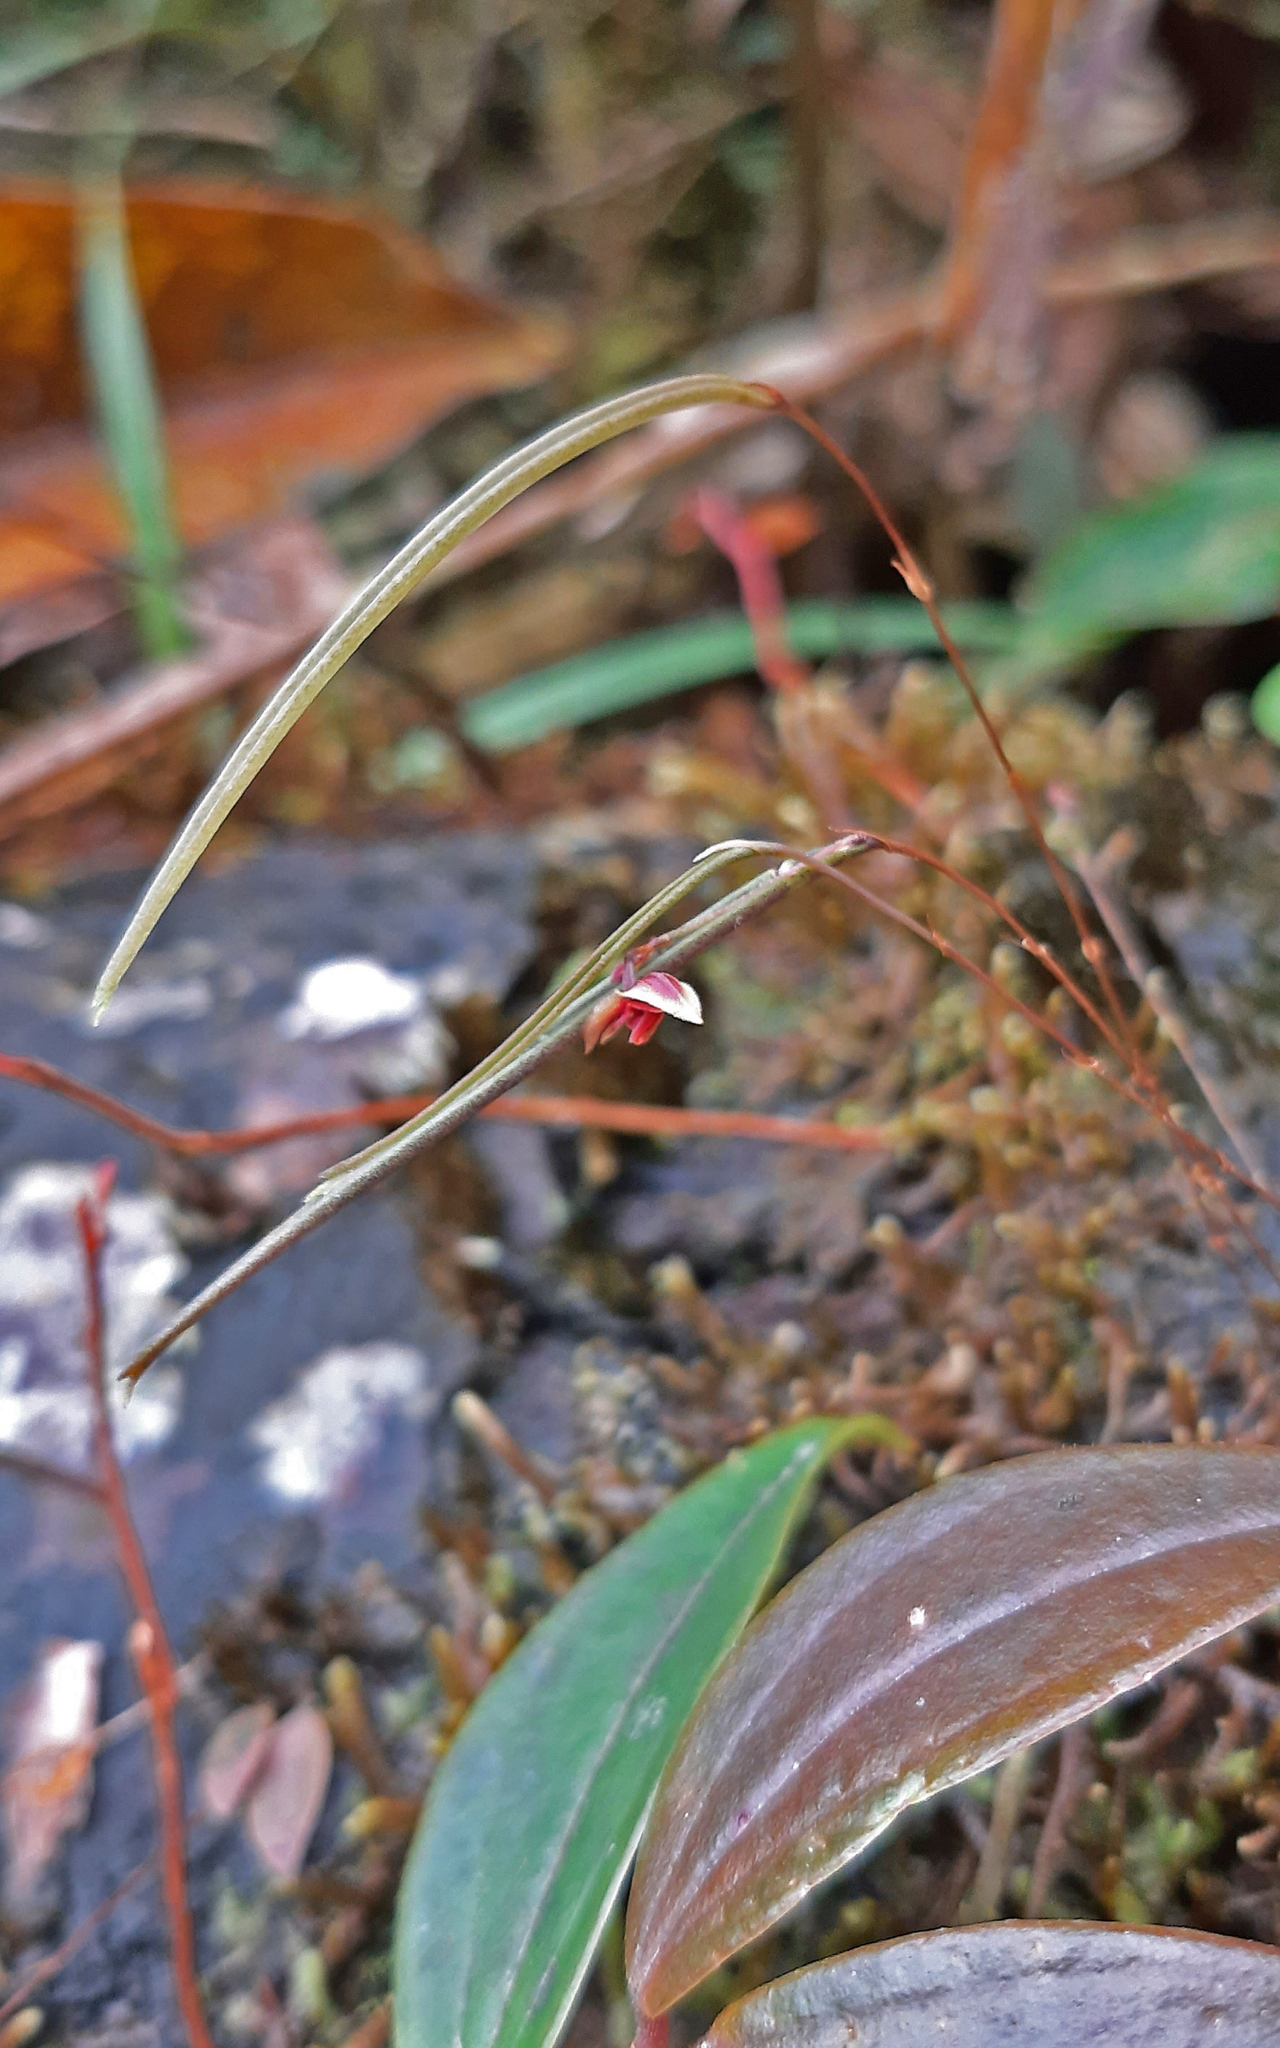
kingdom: Plantae
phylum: Tracheophyta
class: Liliopsida
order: Asparagales
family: Orchidaceae
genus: Lepanthes
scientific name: Lepanthes aciculifolia
